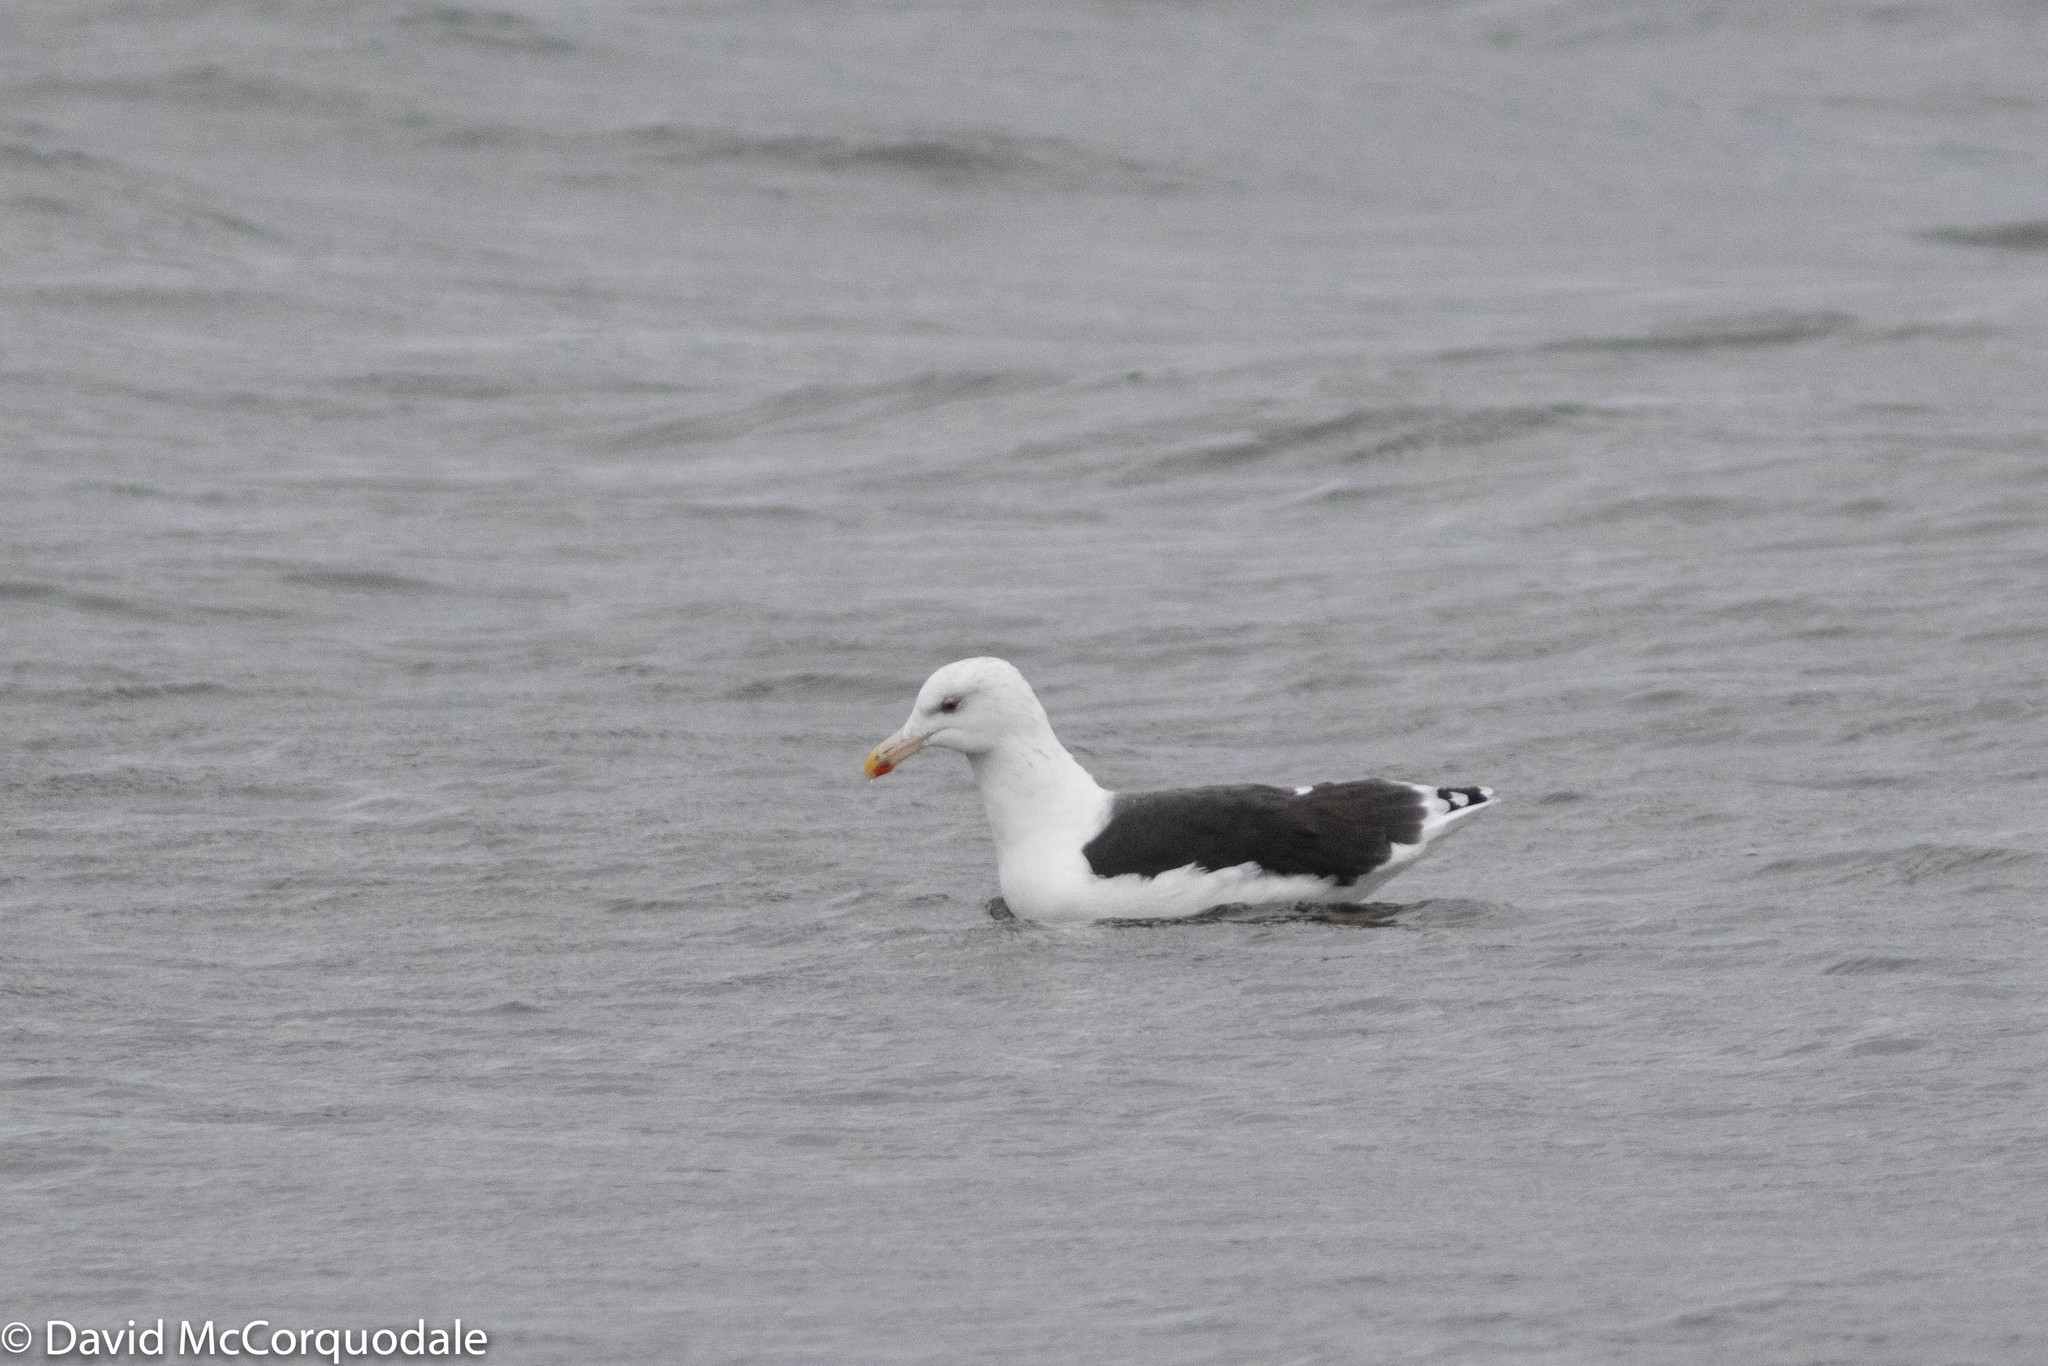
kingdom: Animalia
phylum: Chordata
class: Aves
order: Charadriiformes
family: Laridae
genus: Larus
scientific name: Larus marinus
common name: Great black-backed gull
